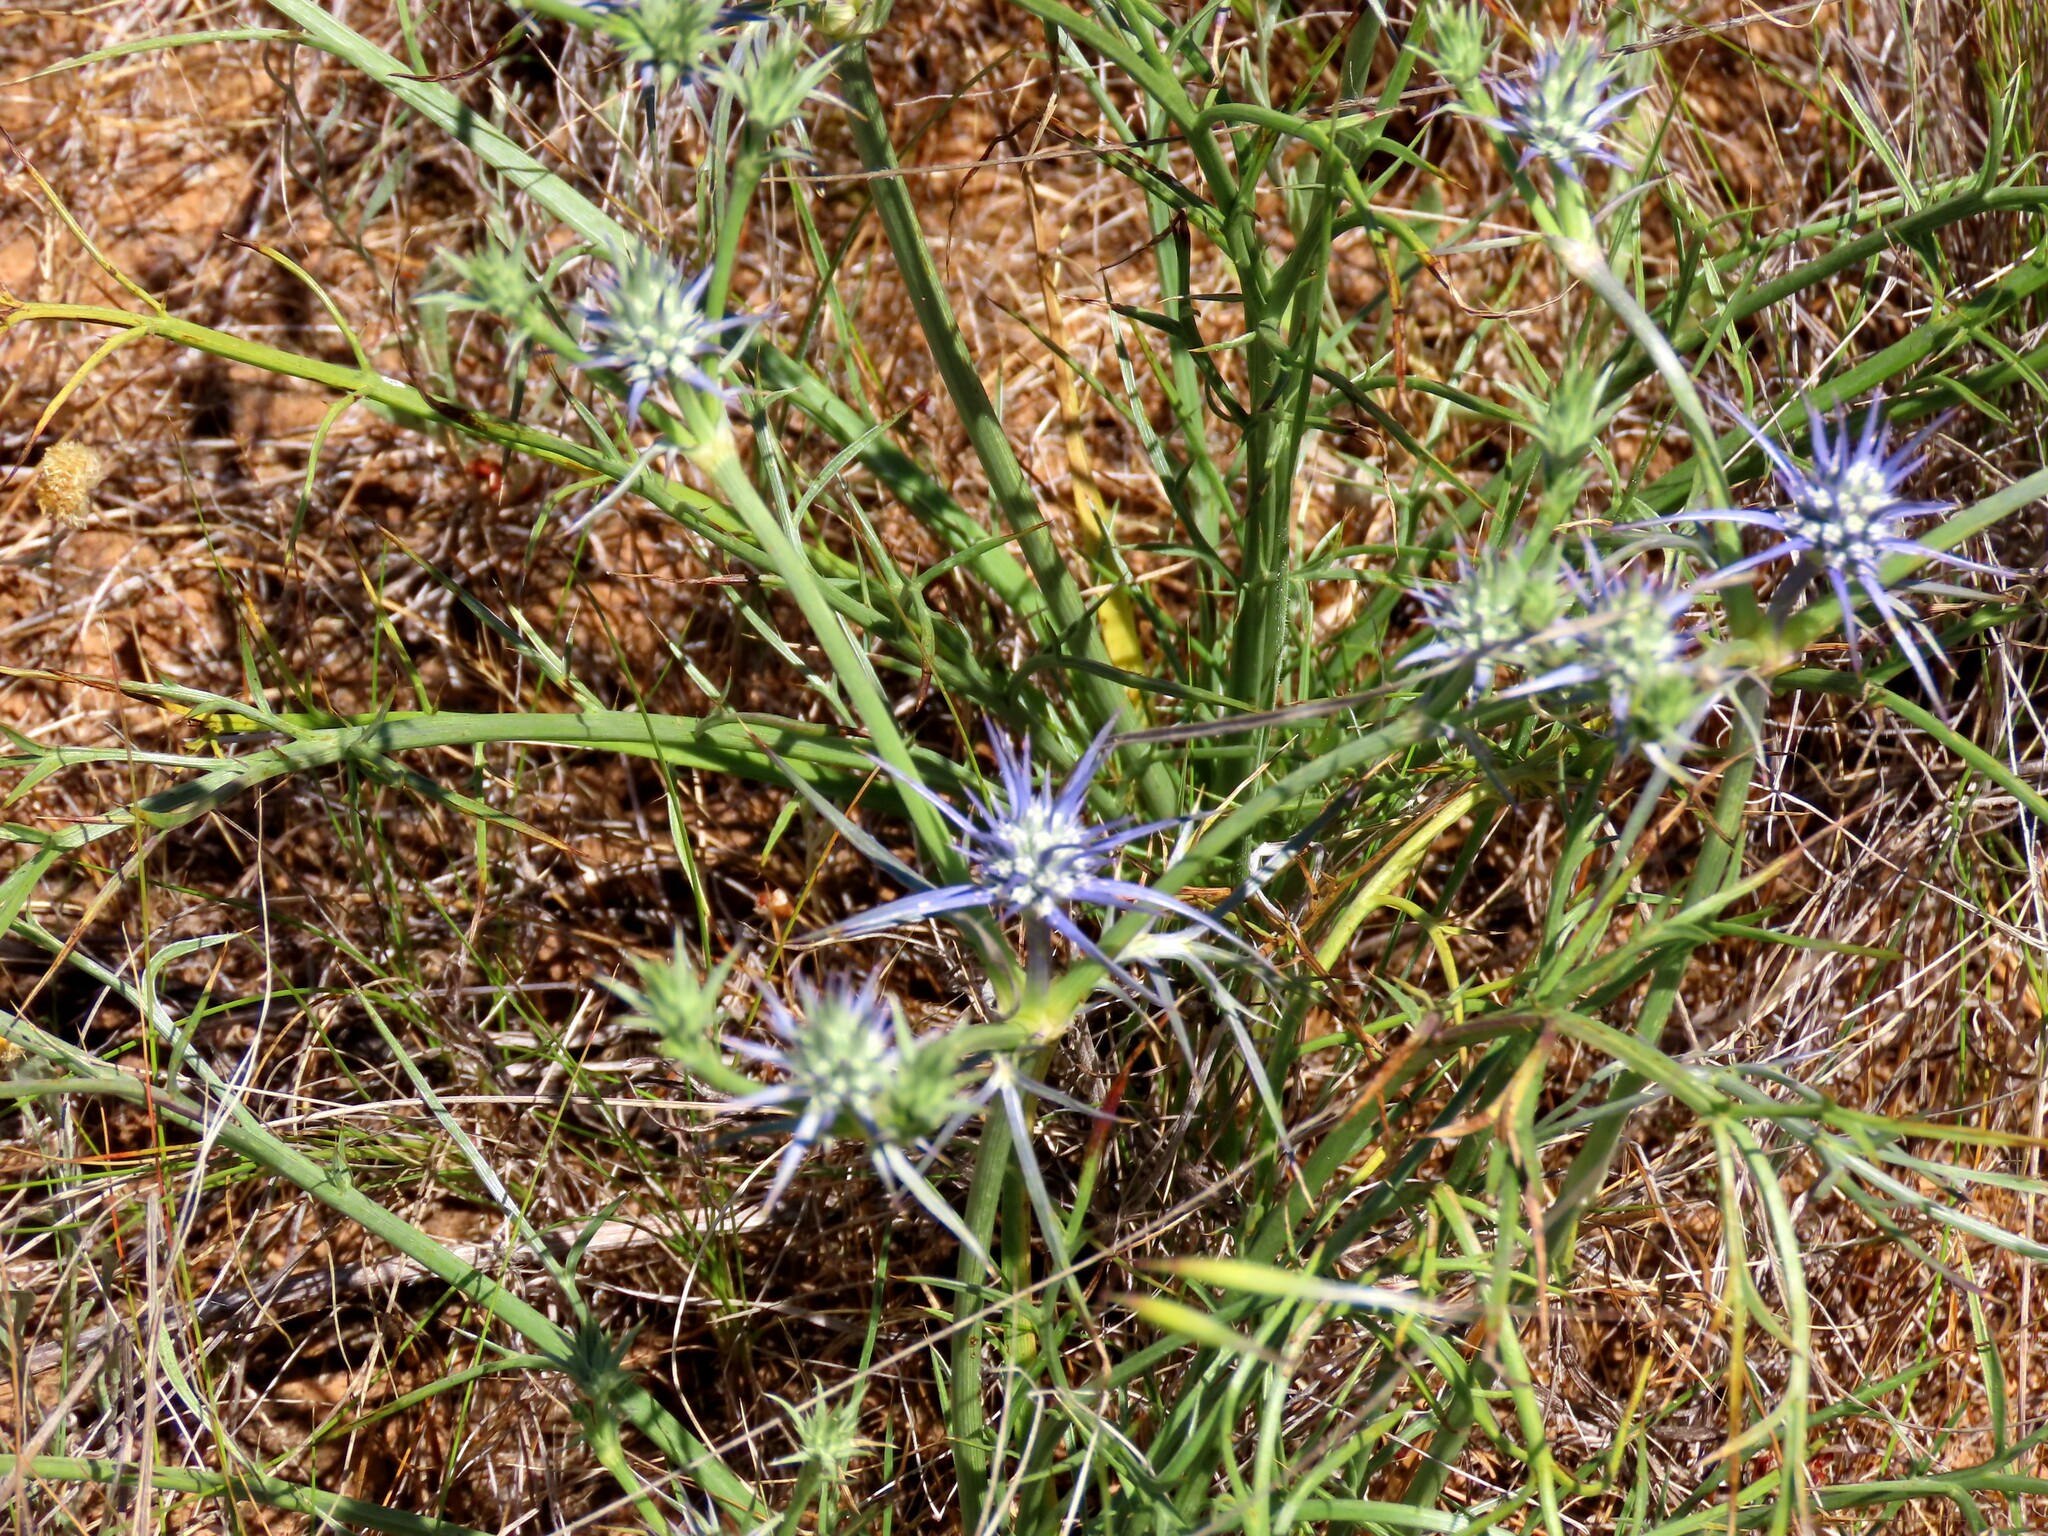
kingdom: Plantae
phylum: Tracheophyta
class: Magnoliopsida
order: Apiales
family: Apiaceae
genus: Eryngium
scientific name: Eryngium ovinum
